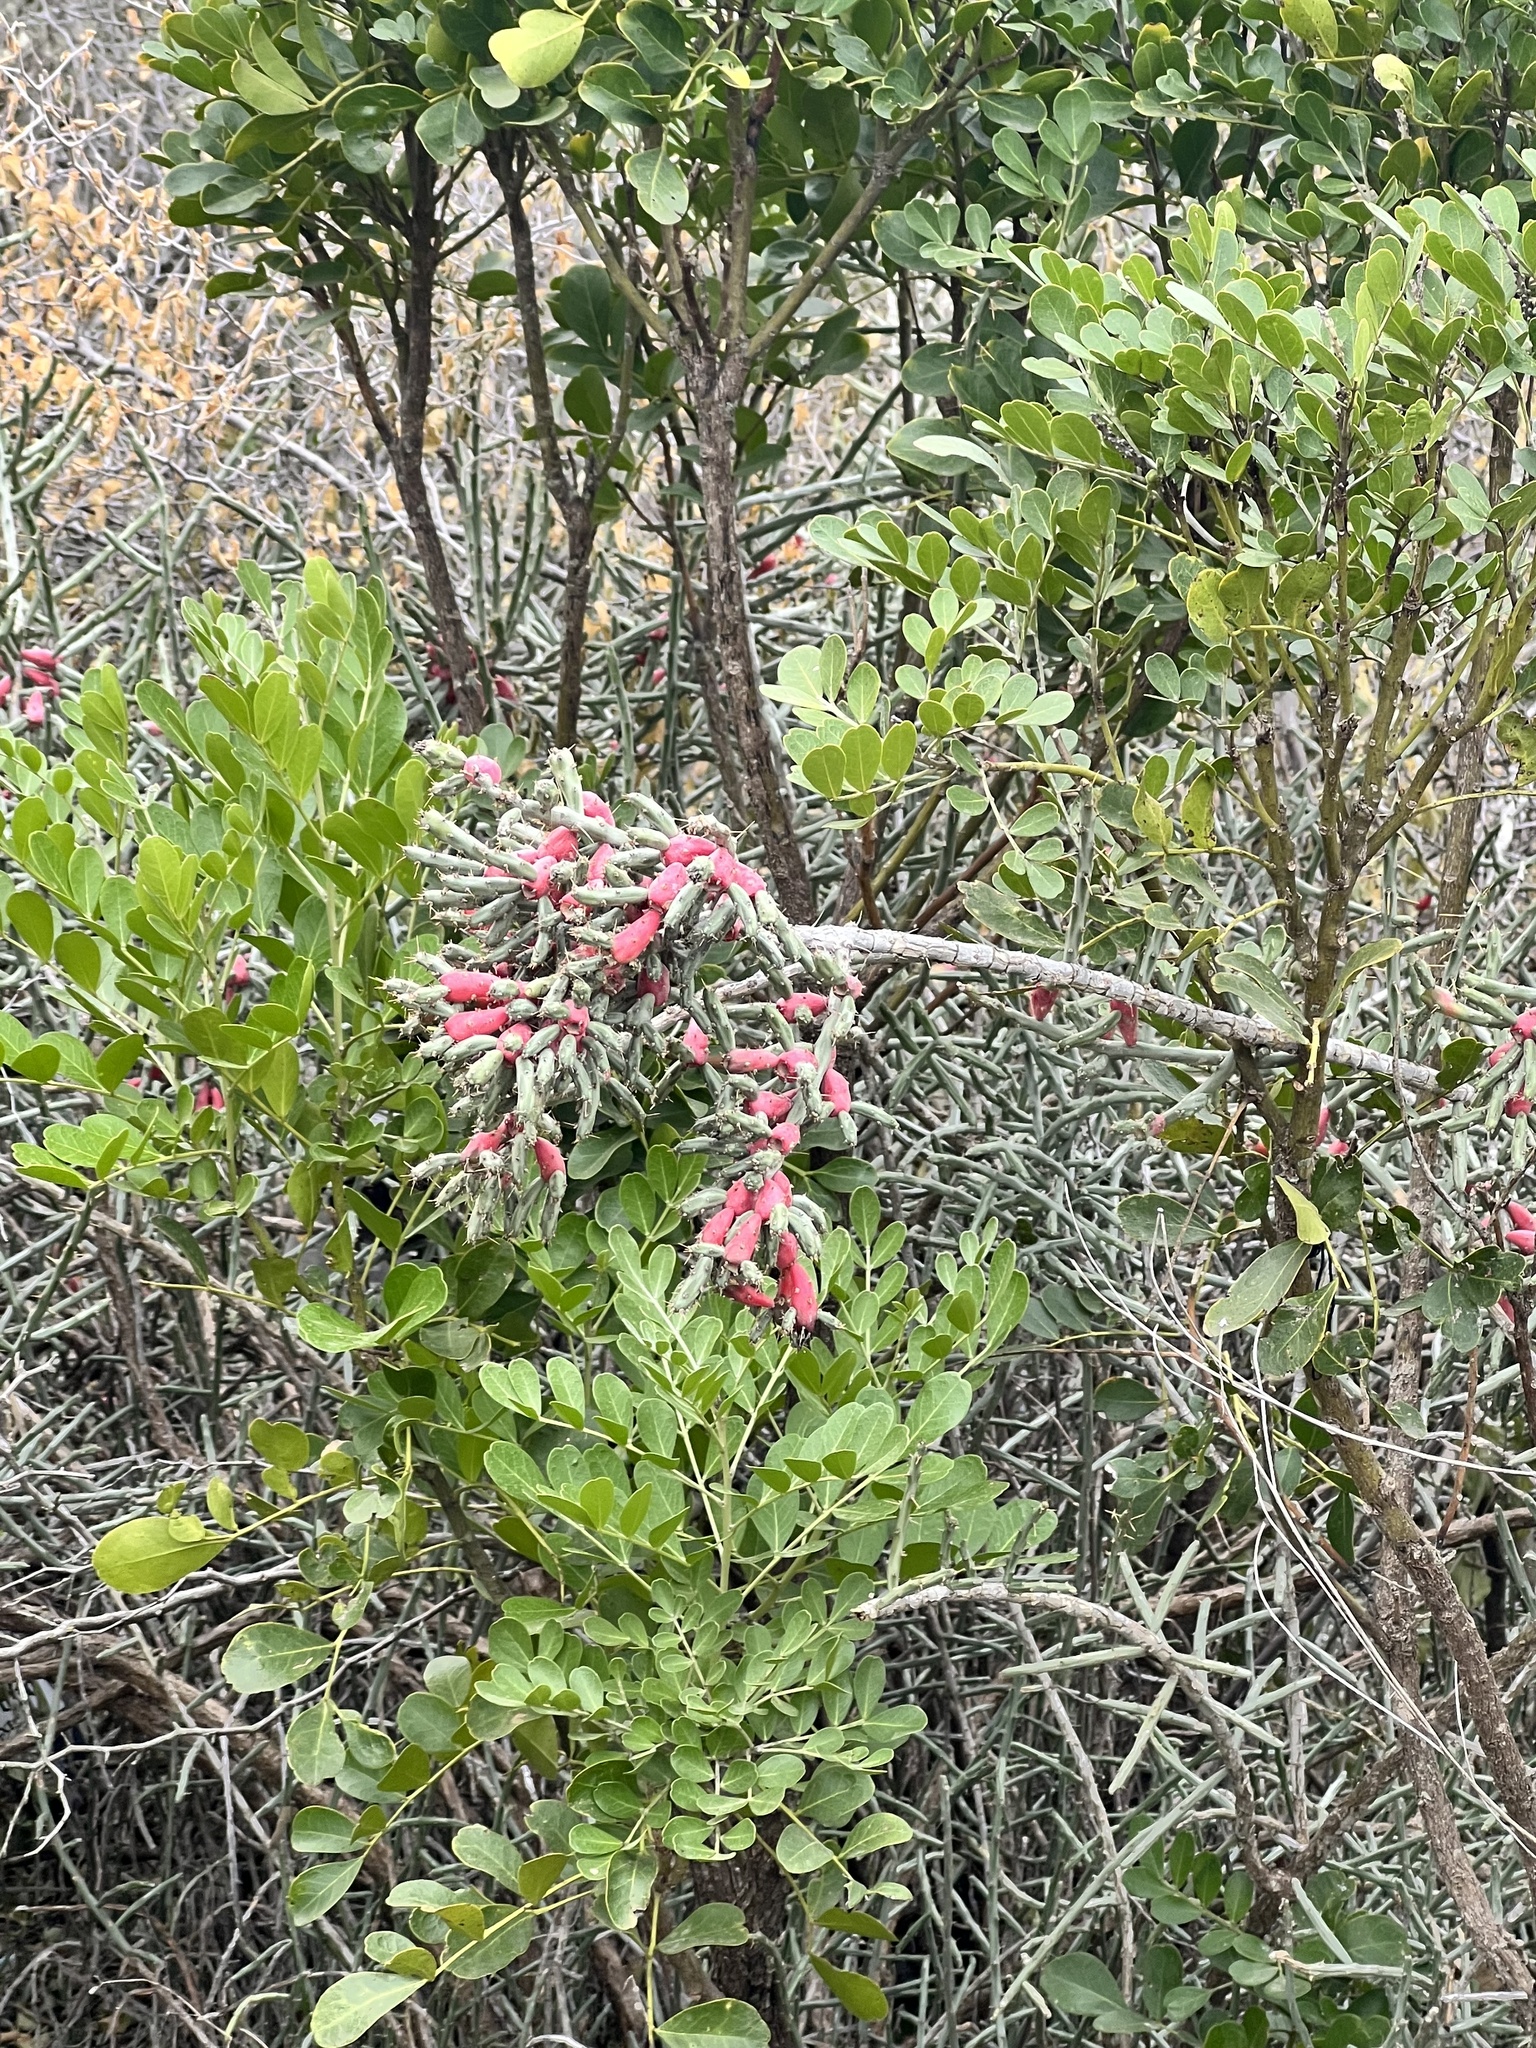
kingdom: Plantae
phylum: Tracheophyta
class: Magnoliopsida
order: Caryophyllales
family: Cactaceae
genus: Cylindropuntia
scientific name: Cylindropuntia leptocaulis
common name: Christmas cactus
